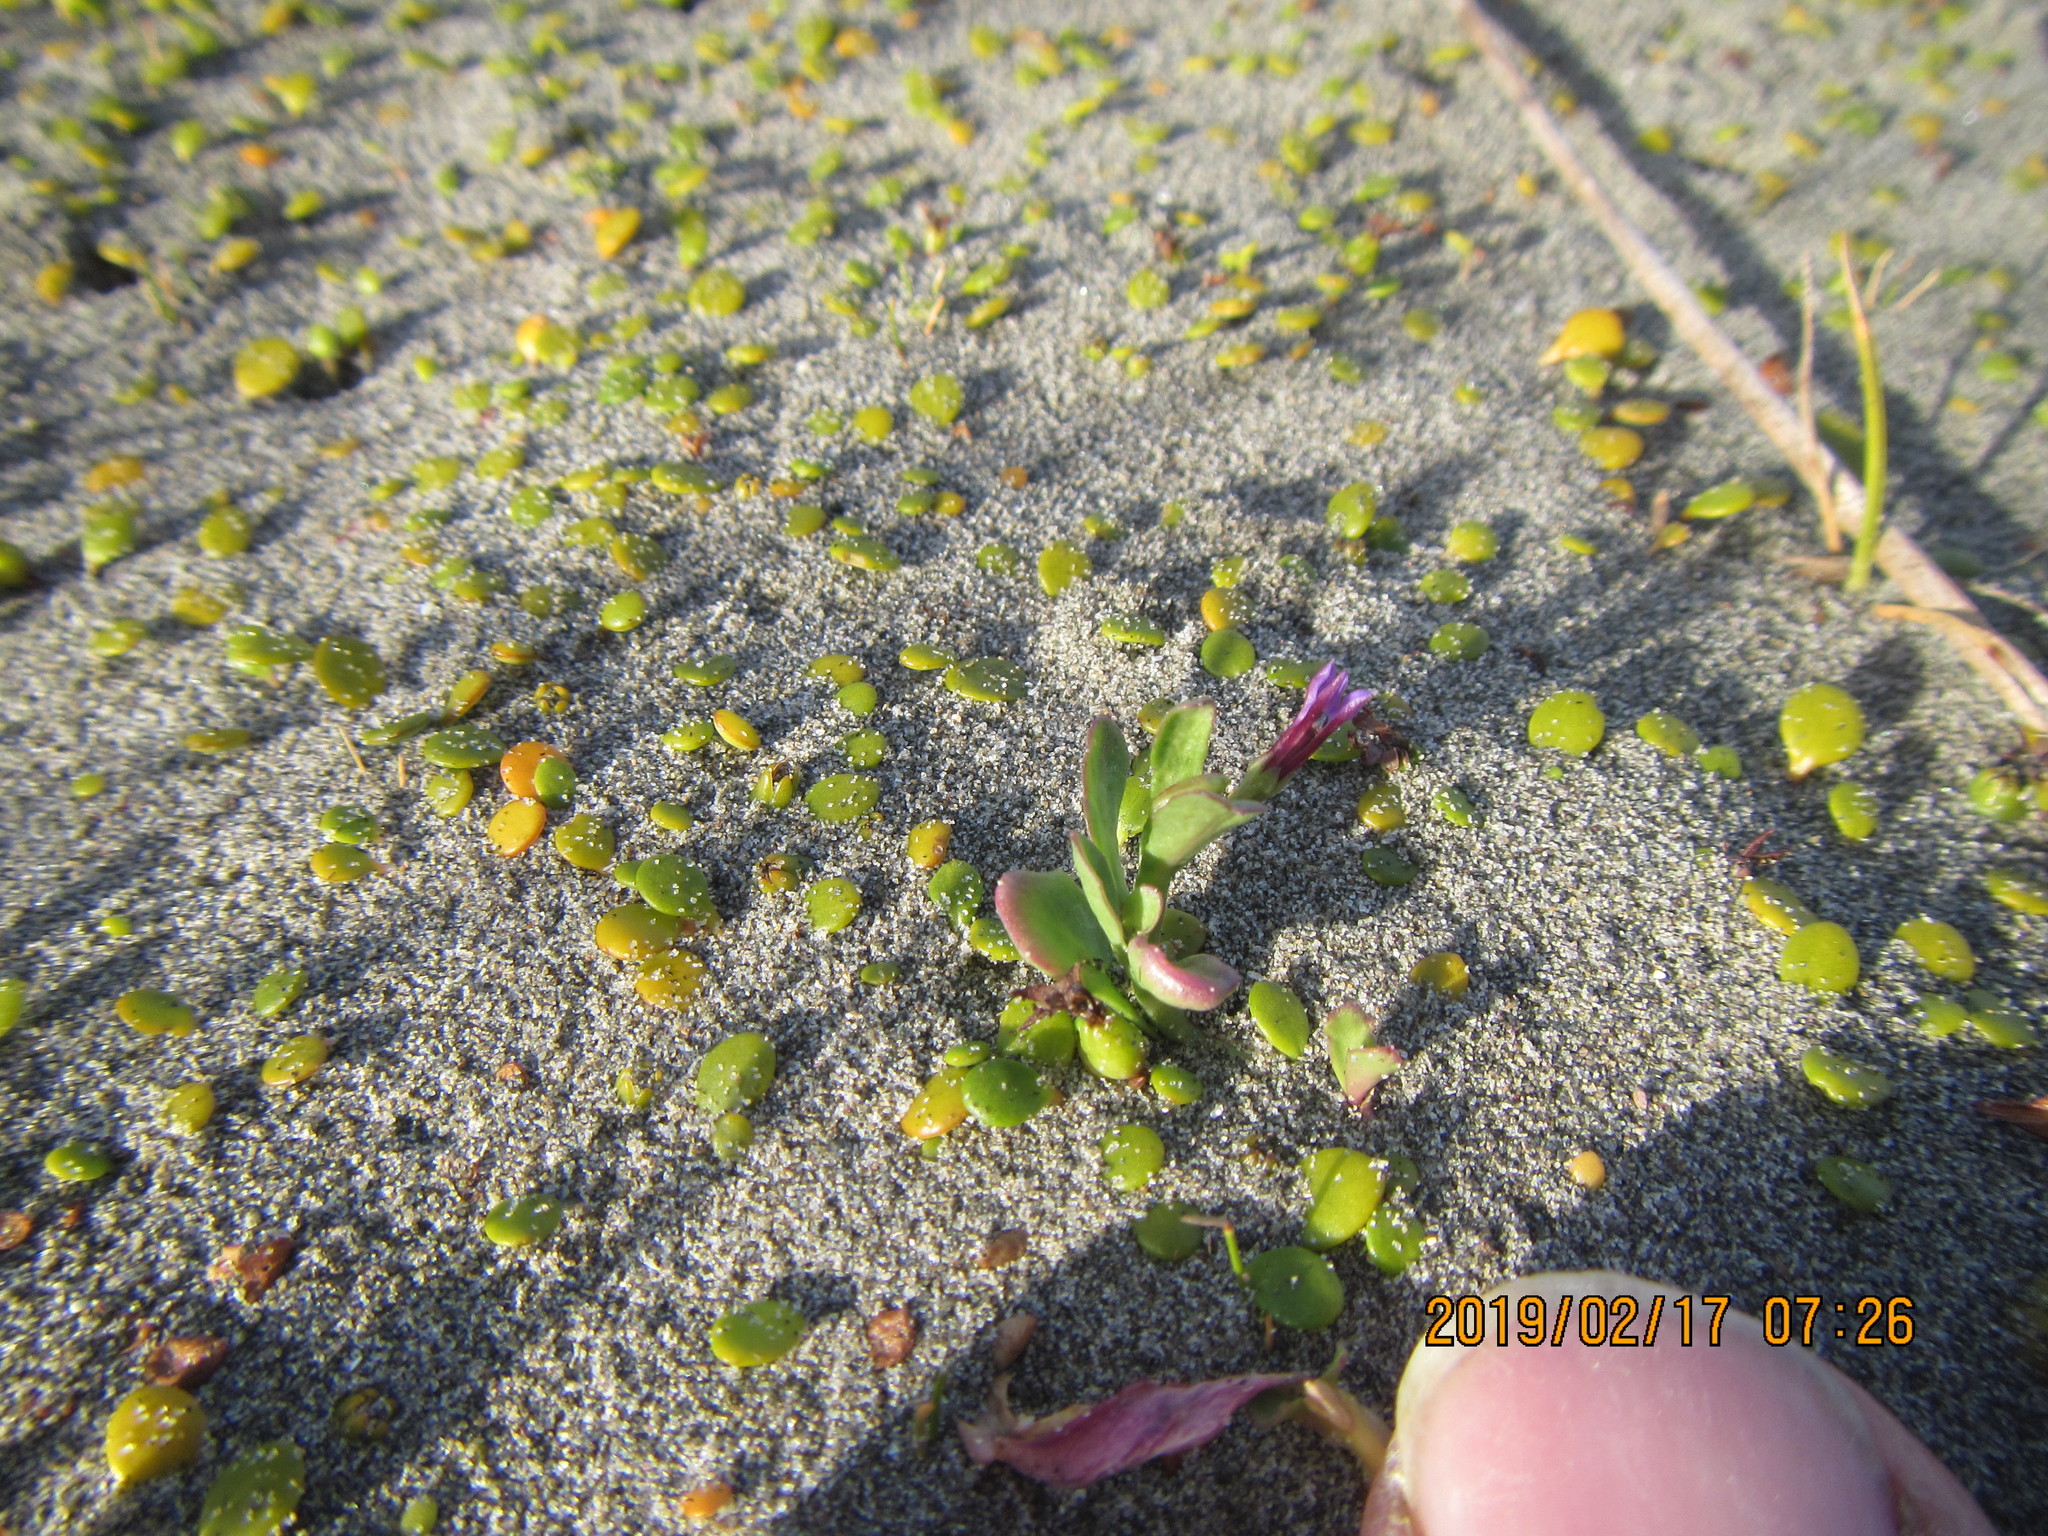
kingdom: Plantae
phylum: Tracheophyta
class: Magnoliopsida
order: Asterales
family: Campanulaceae
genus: Lobelia
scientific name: Lobelia anceps
